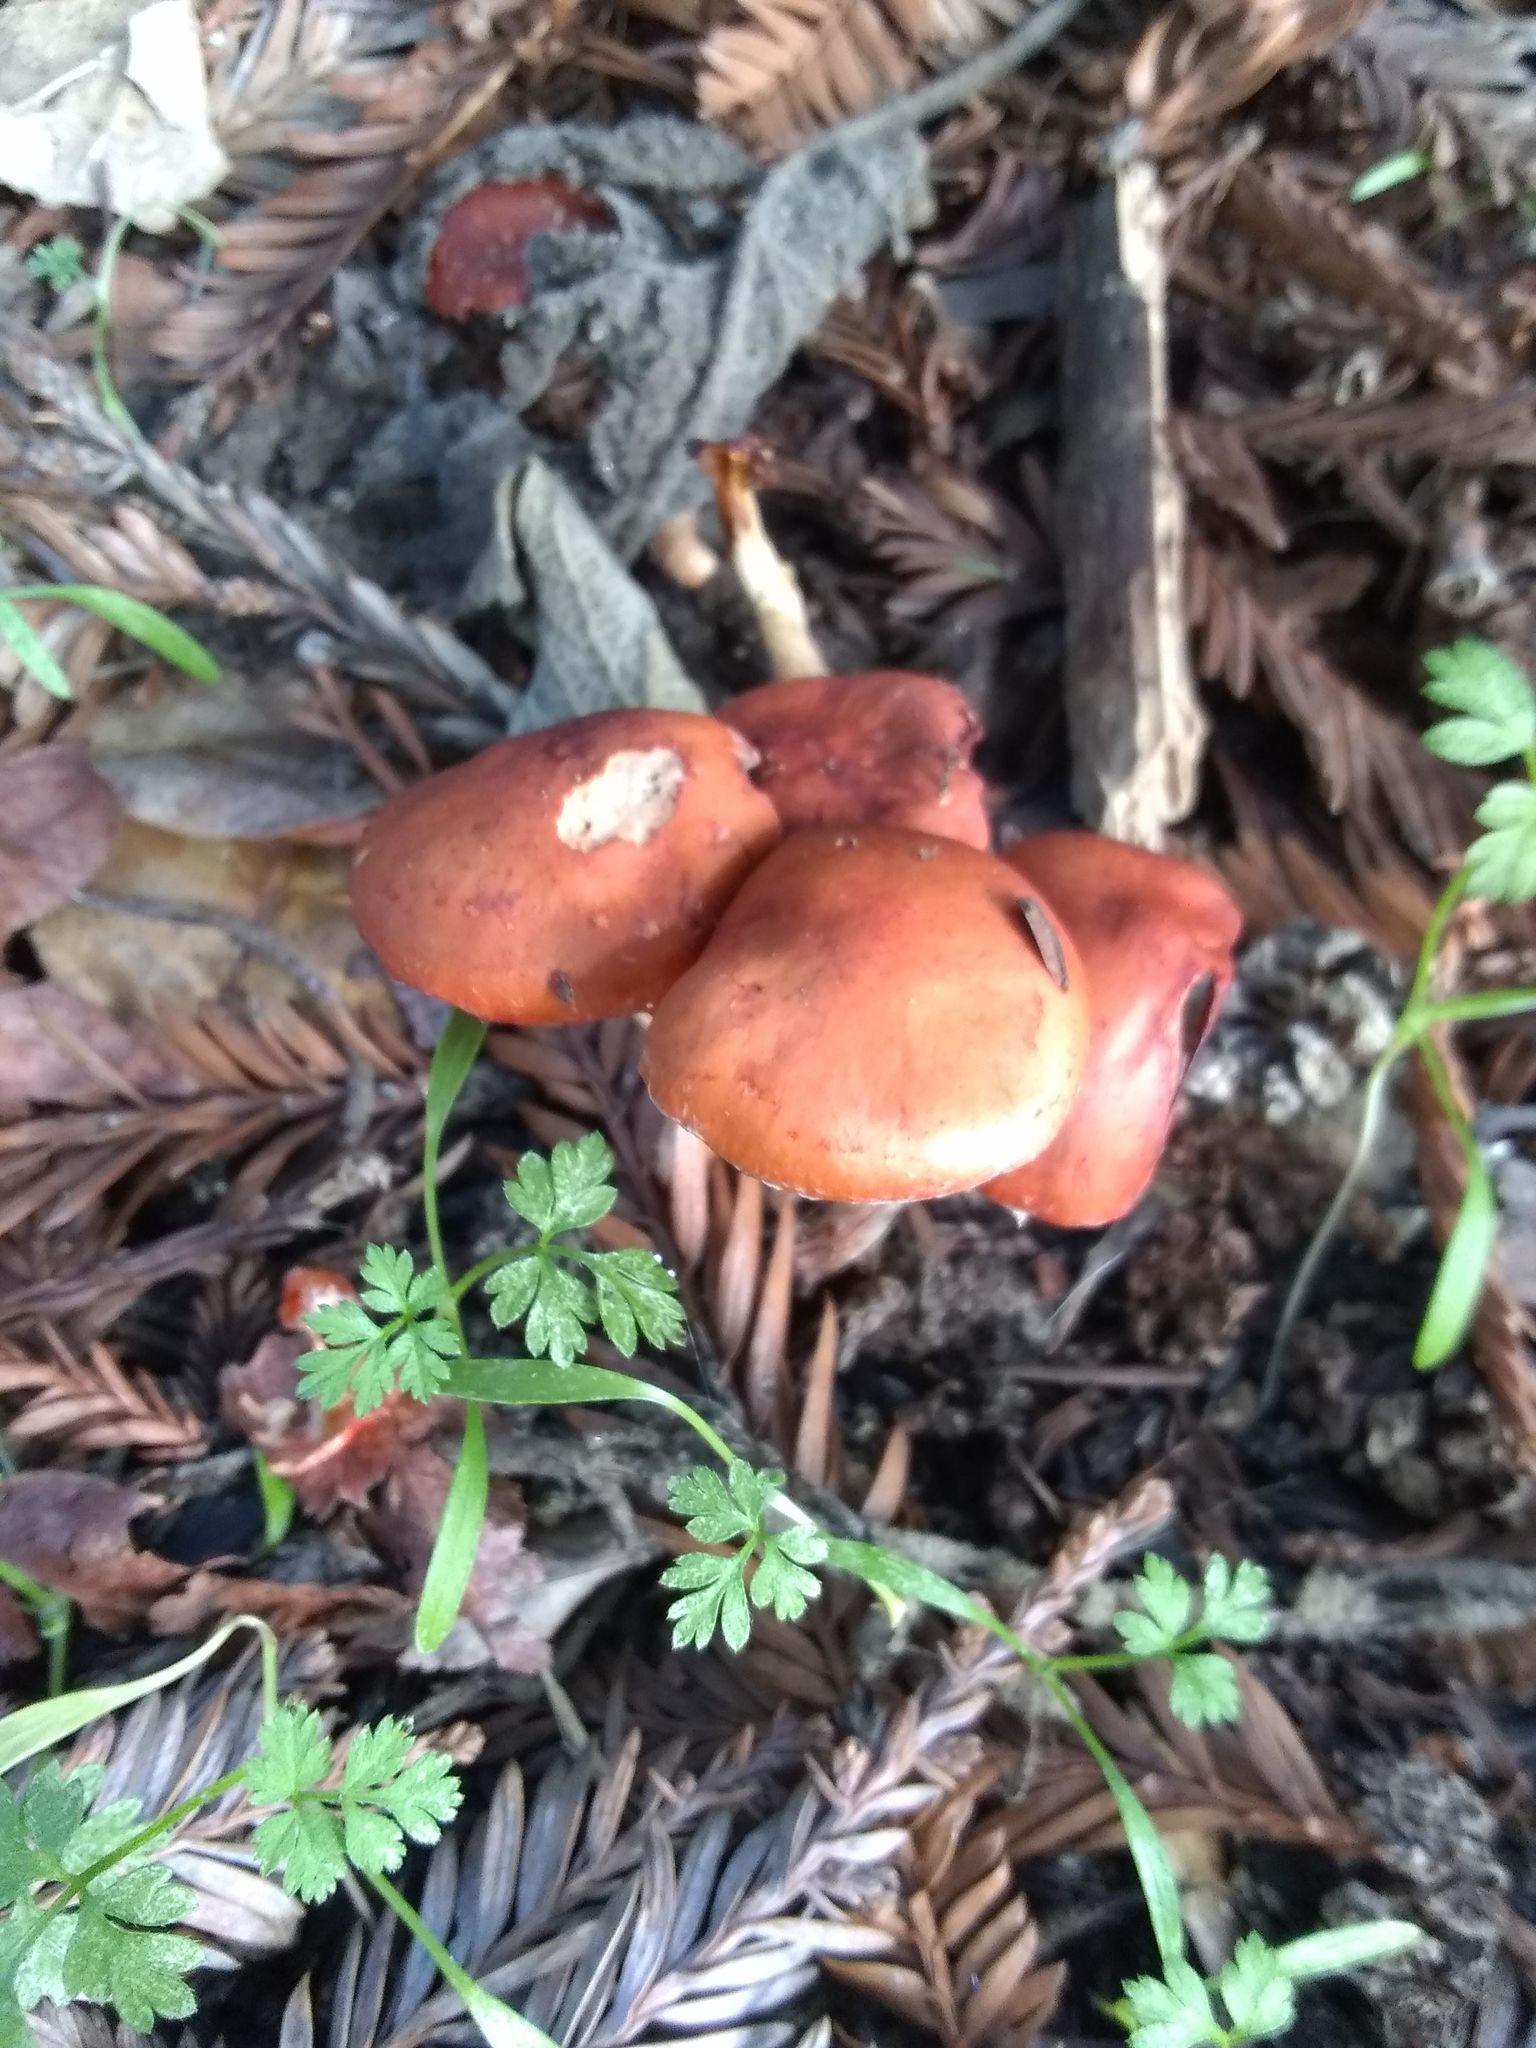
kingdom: Fungi
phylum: Basidiomycota
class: Agaricomycetes
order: Agaricales
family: Strophariaceae
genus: Leratiomyces
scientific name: Leratiomyces ceres
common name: Redlead roundhead
